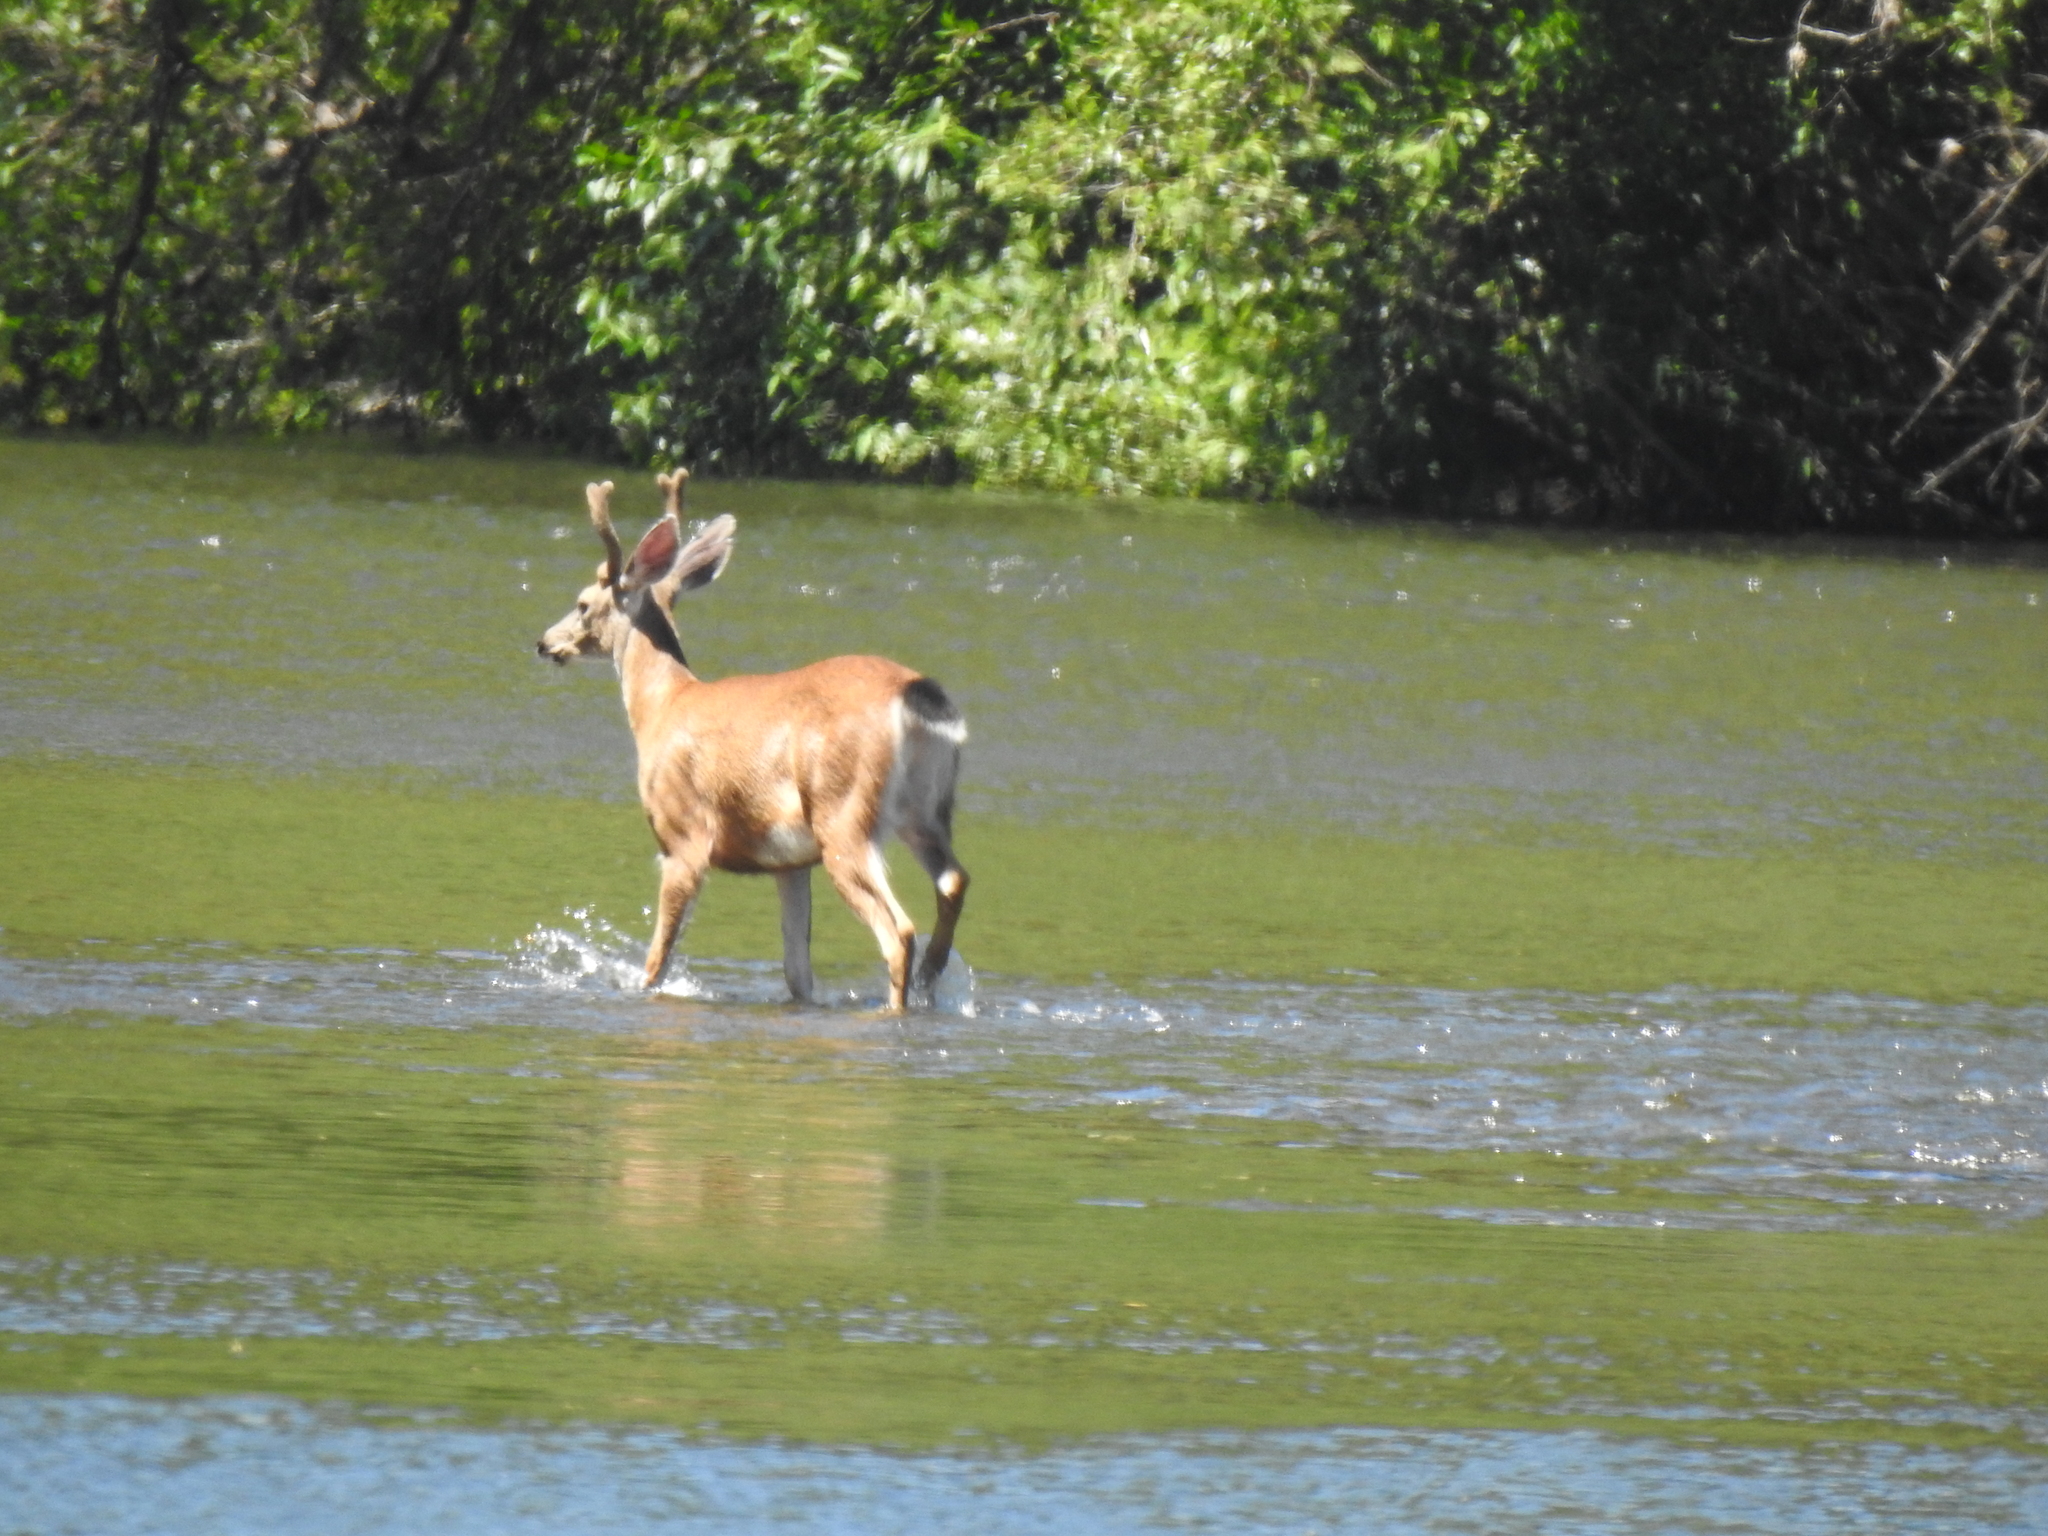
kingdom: Animalia
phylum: Chordata
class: Mammalia
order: Artiodactyla
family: Cervidae
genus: Odocoileus
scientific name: Odocoileus hemionus
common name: Mule deer
